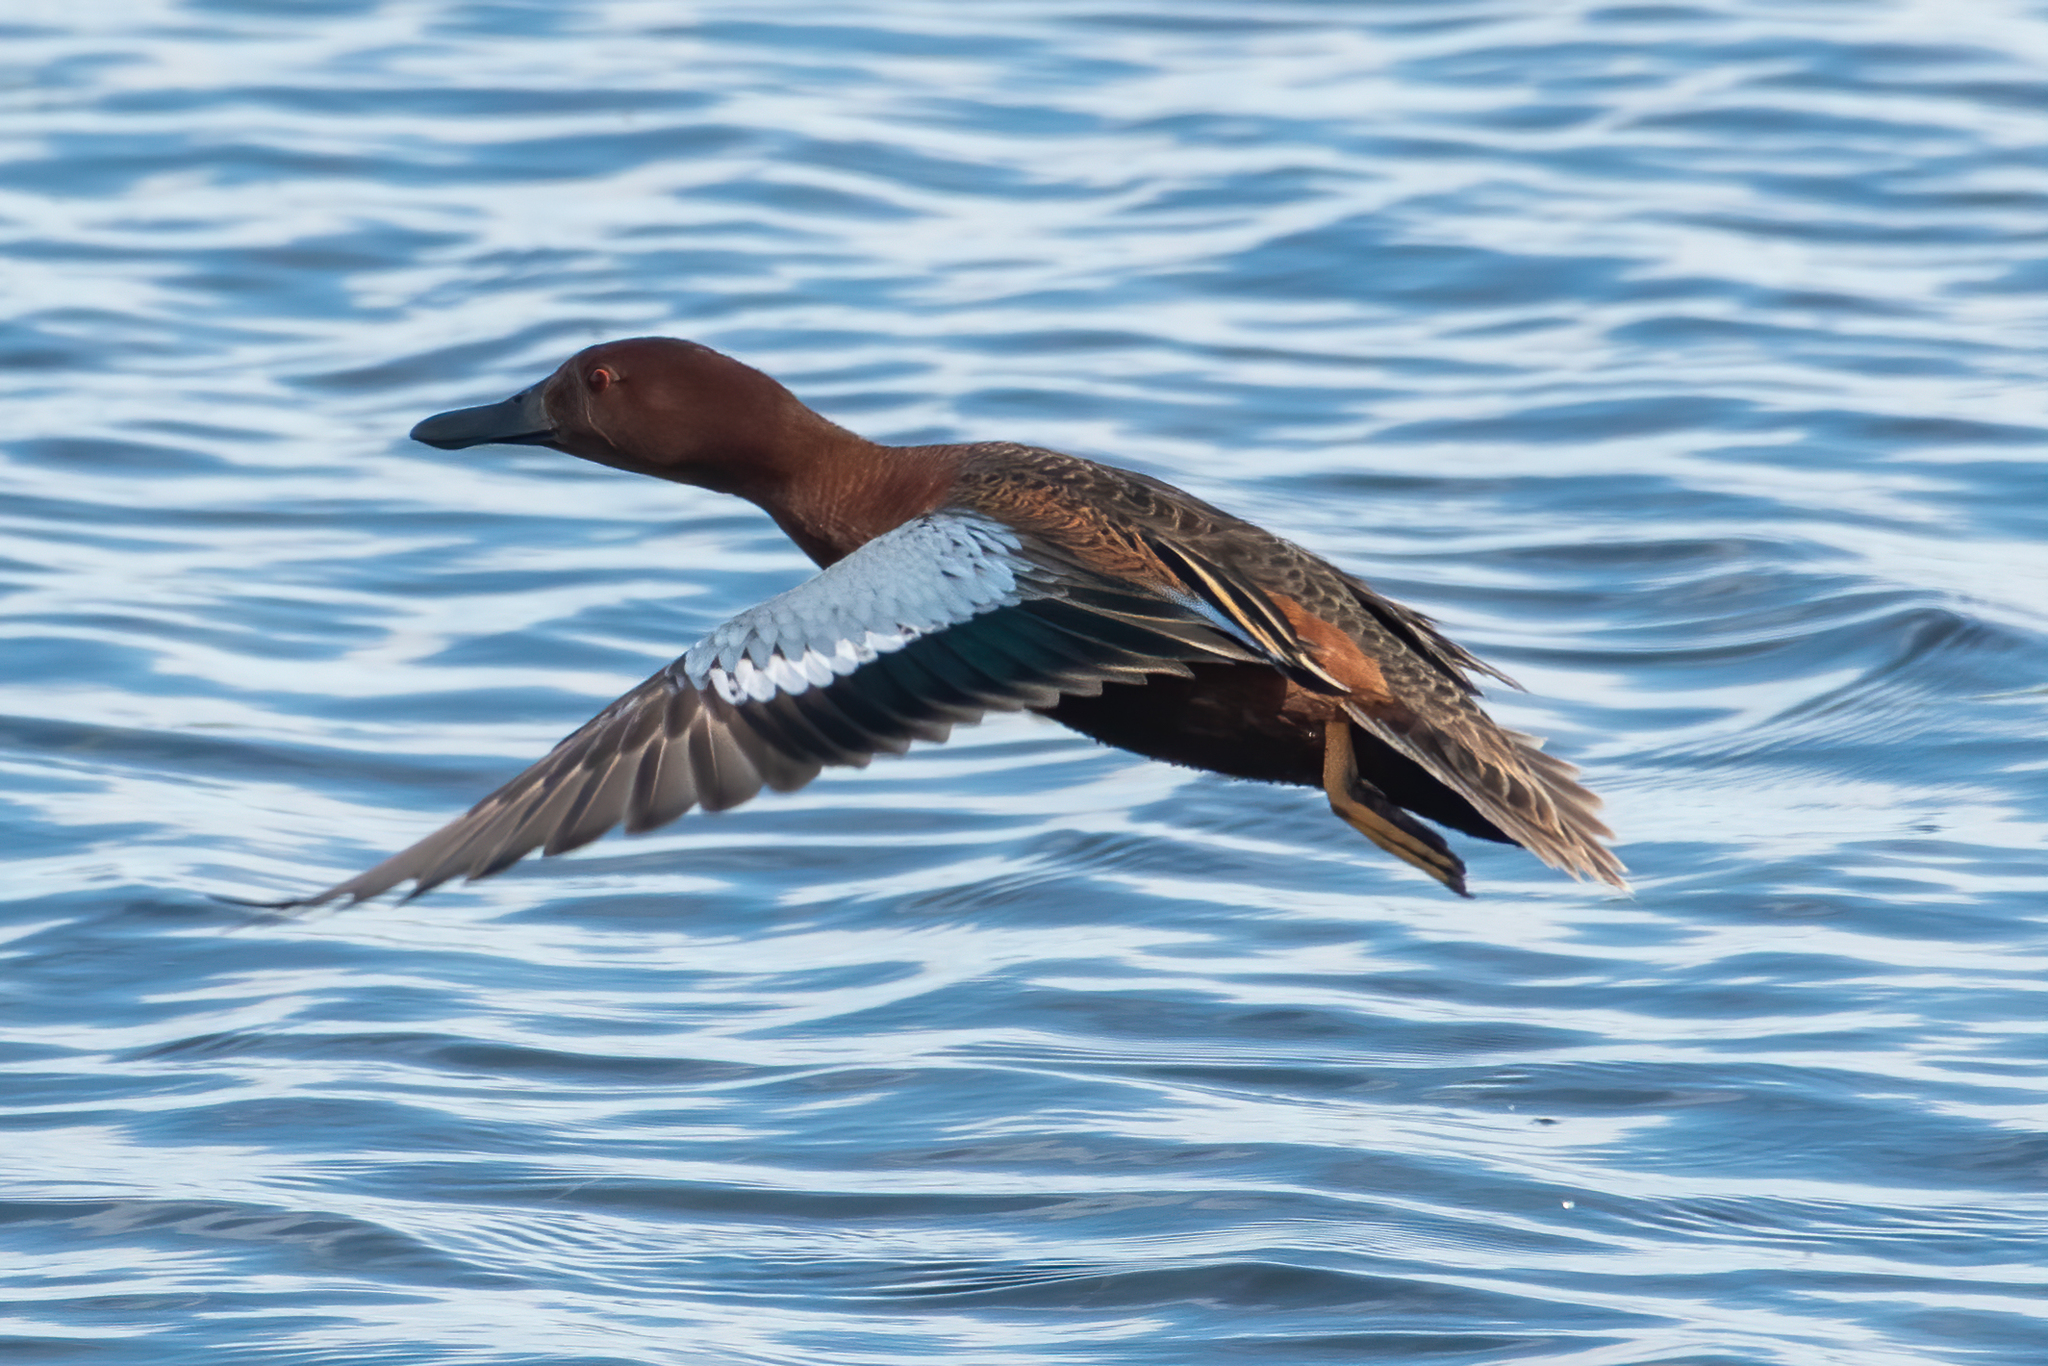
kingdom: Animalia
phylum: Chordata
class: Aves
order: Anseriformes
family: Anatidae
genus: Spatula
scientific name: Spatula cyanoptera
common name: Cinnamon teal
